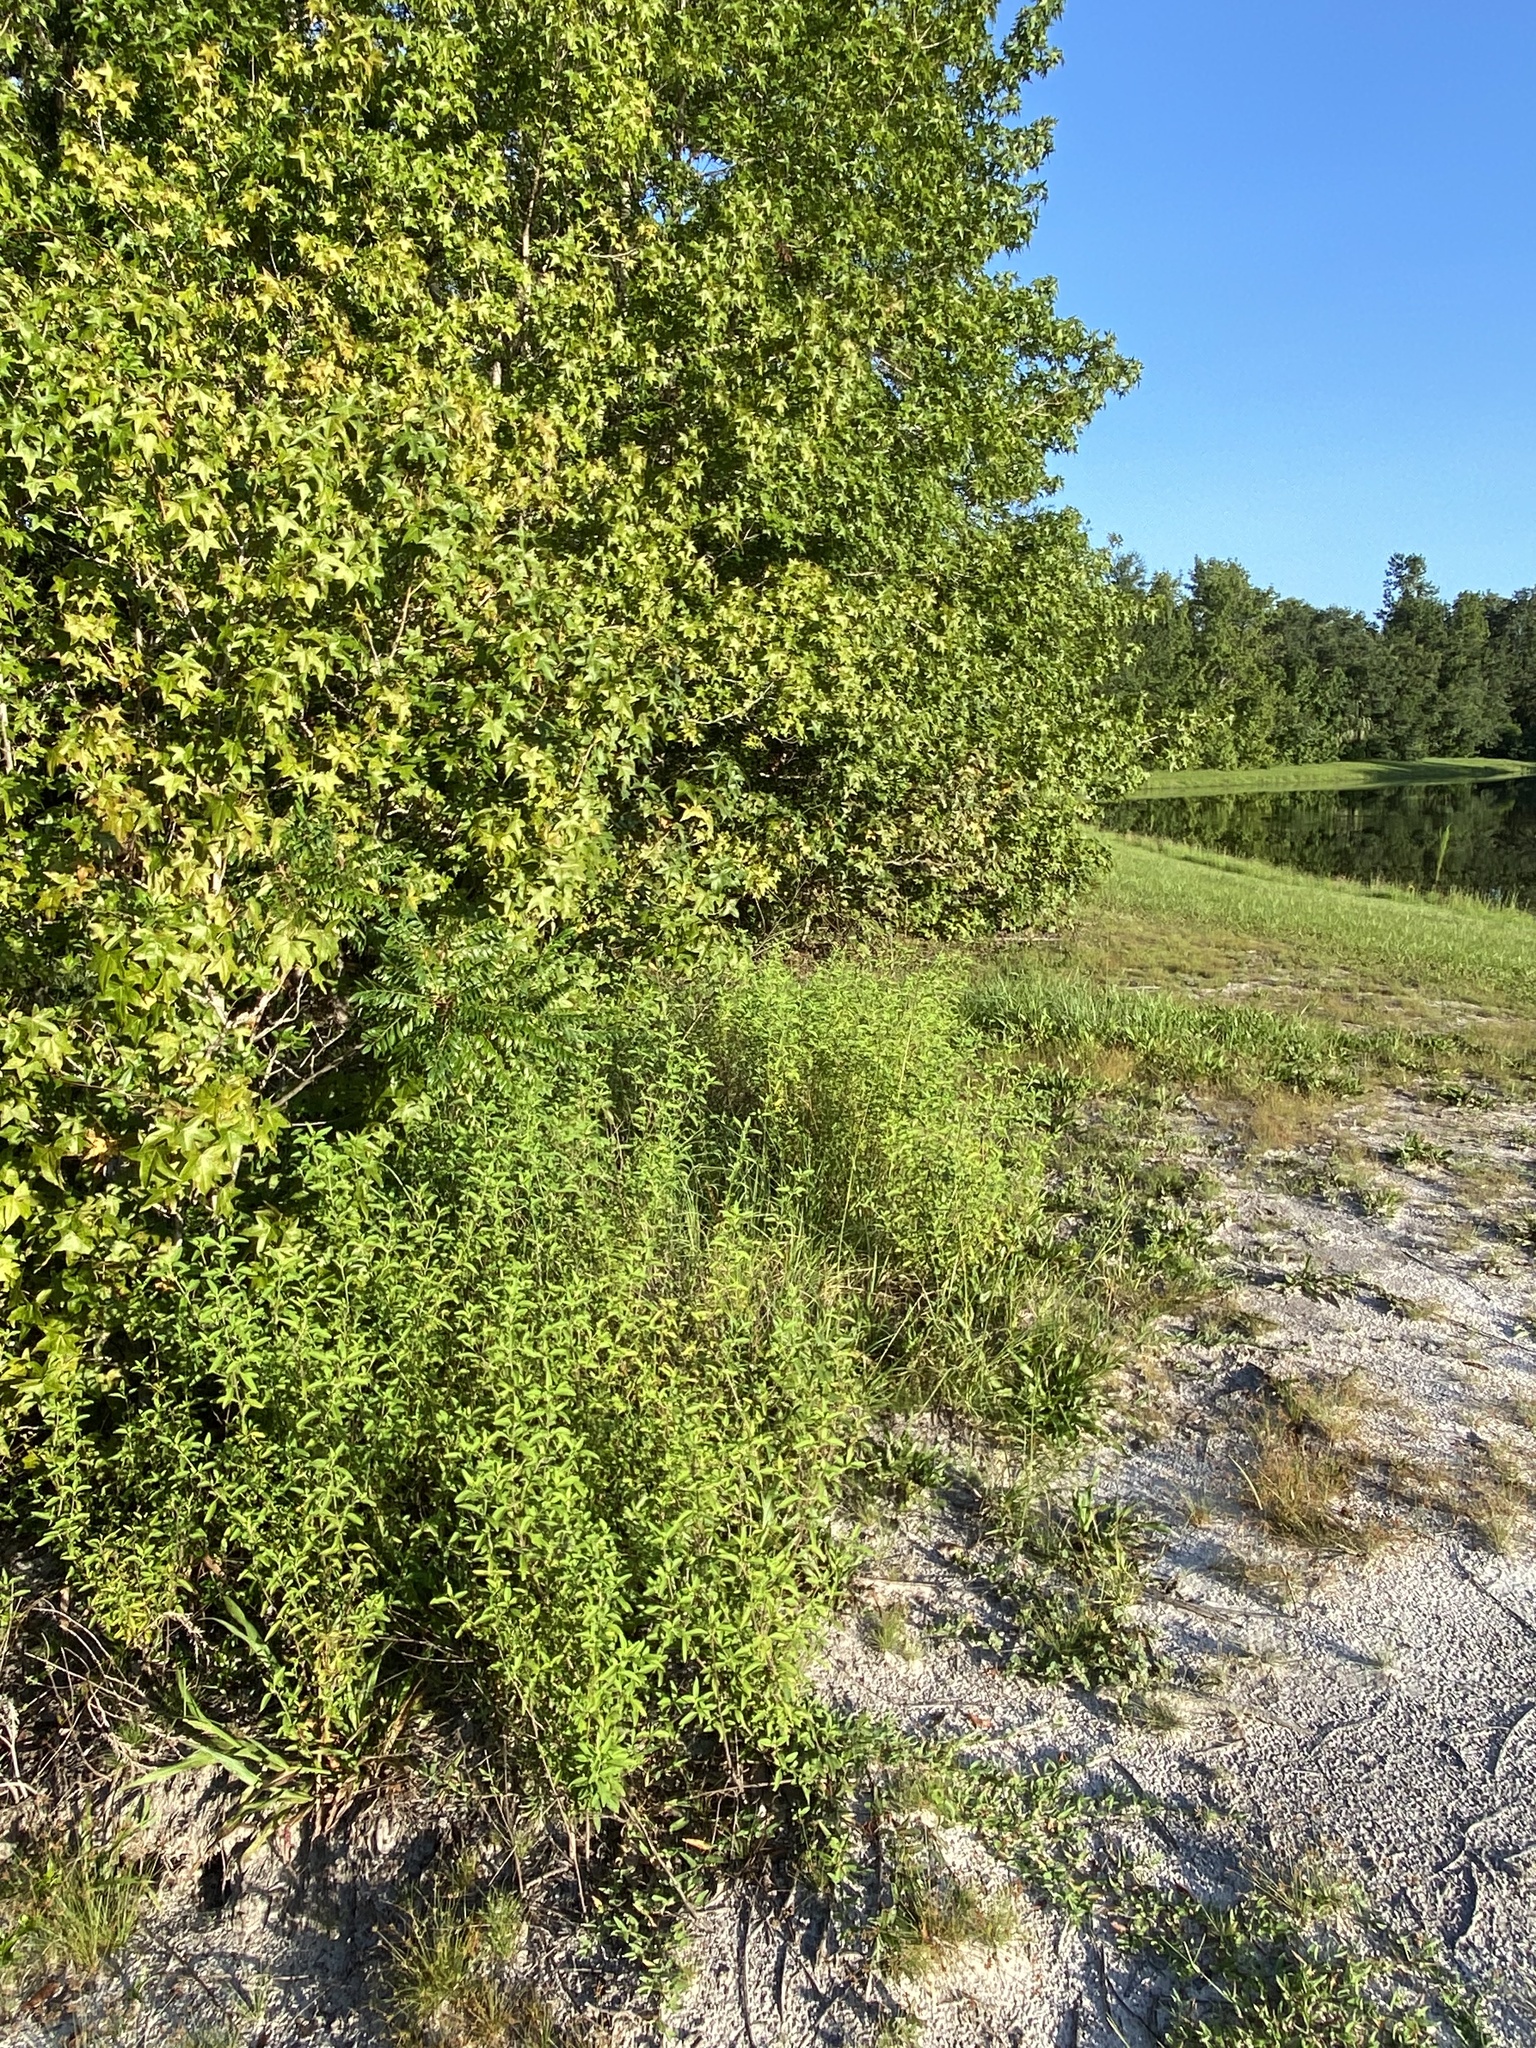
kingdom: Plantae
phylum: Tracheophyta
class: Magnoliopsida
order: Lamiales
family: Lamiaceae
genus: Trichostema
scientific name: Trichostema fruticosum
